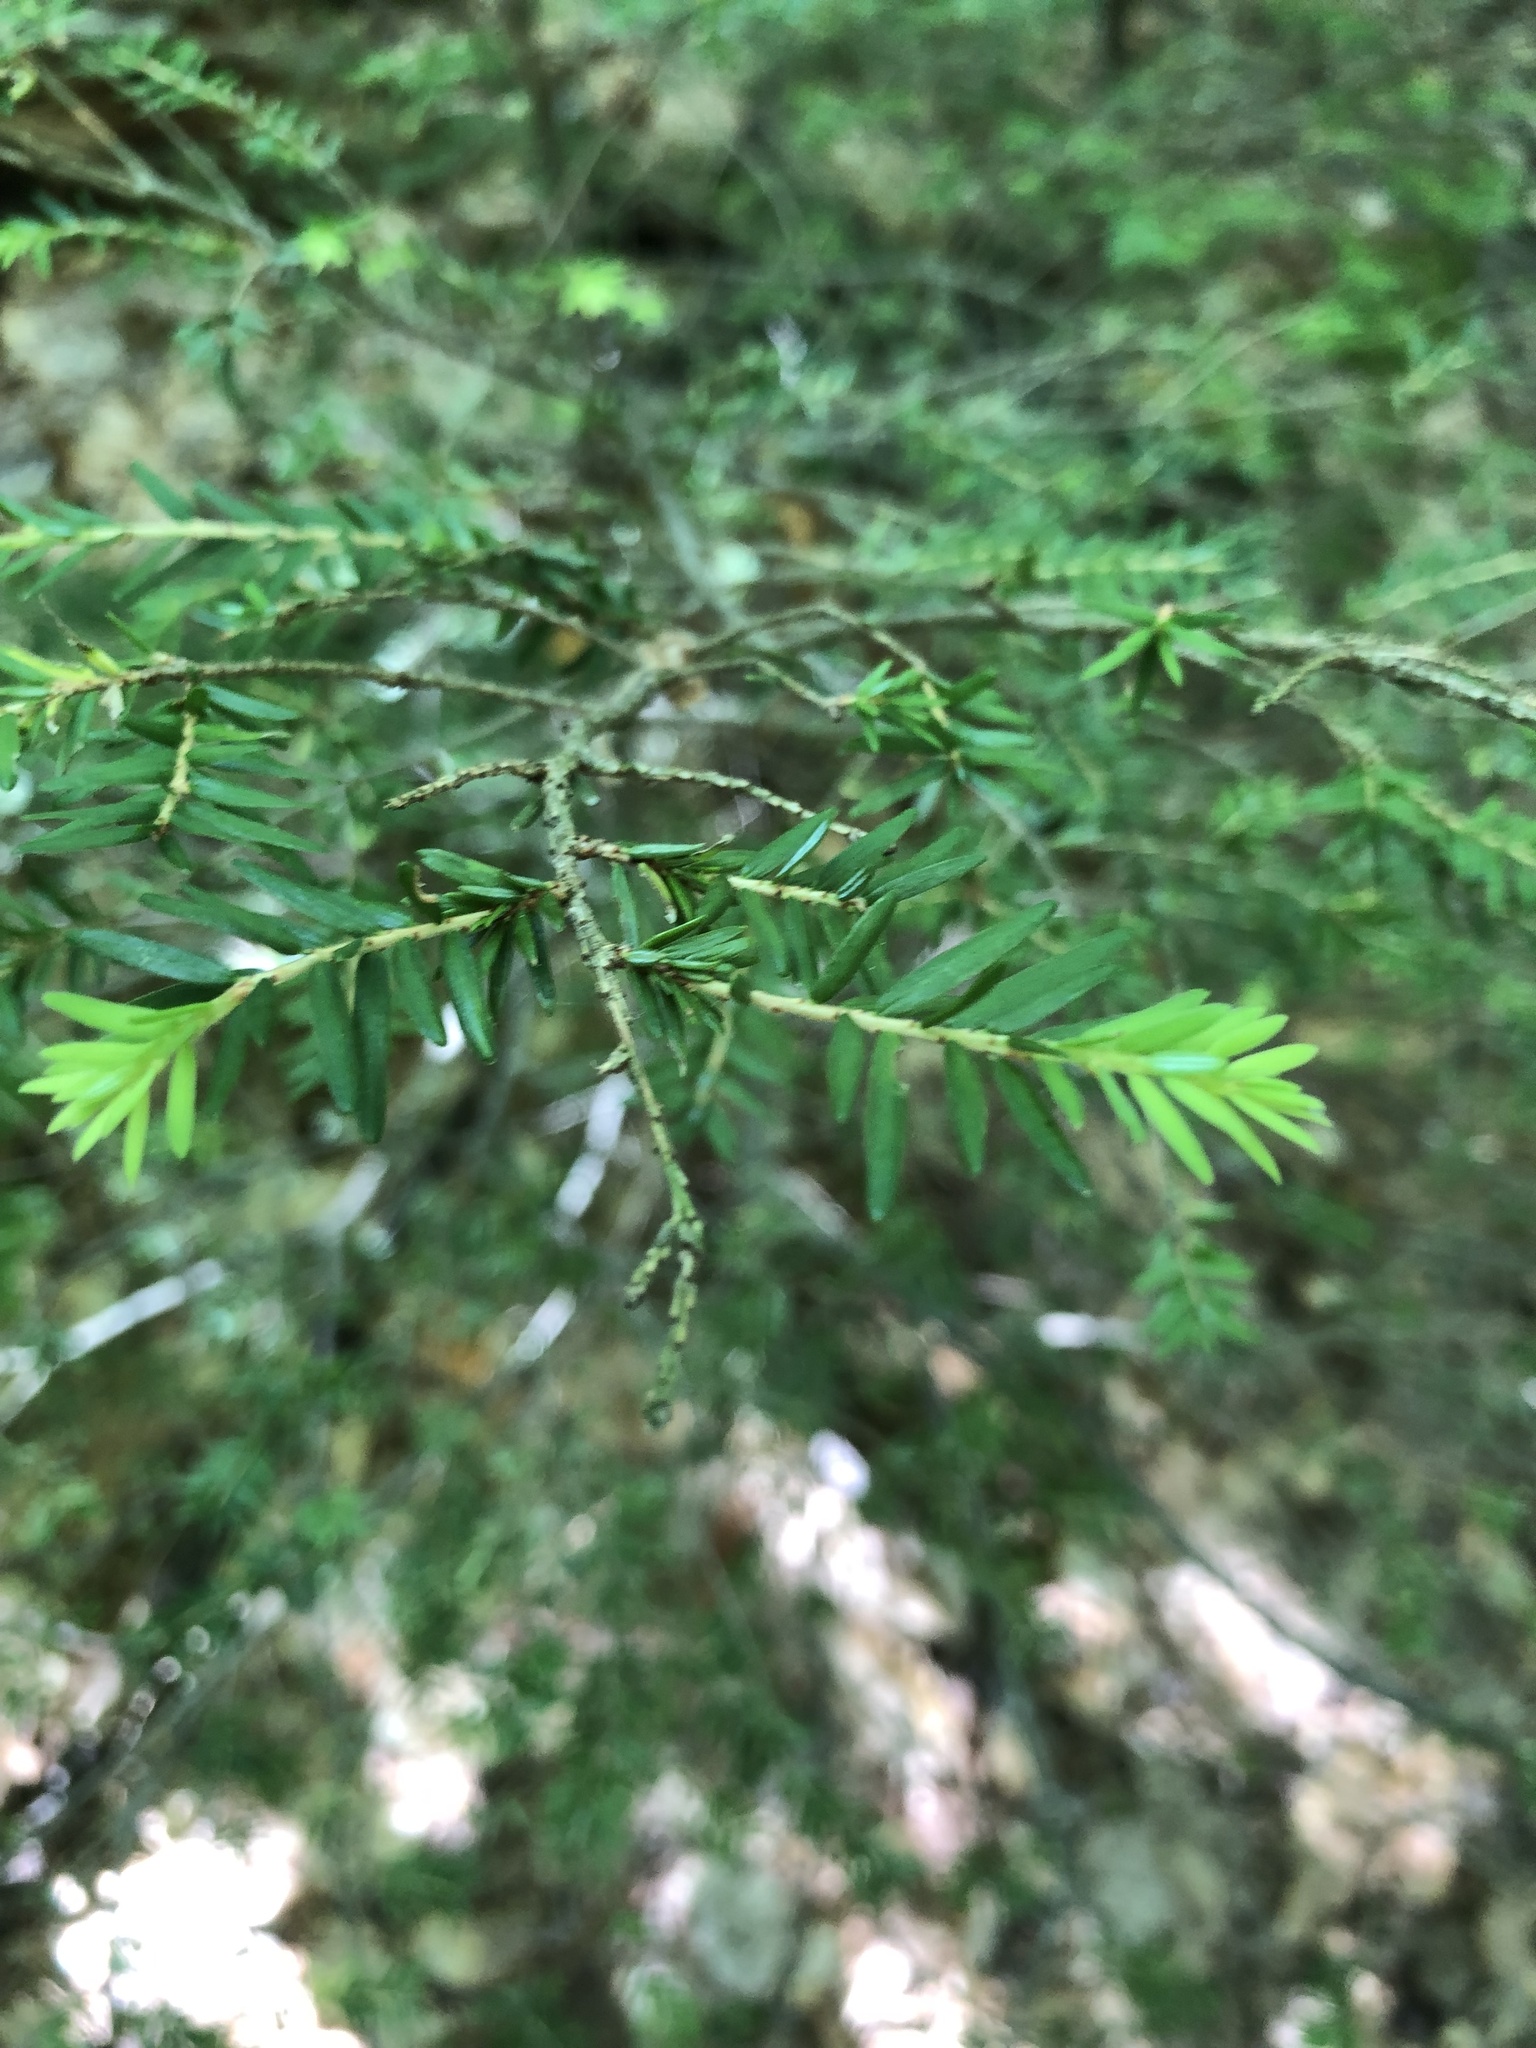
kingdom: Plantae
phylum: Tracheophyta
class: Pinopsida
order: Pinales
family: Pinaceae
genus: Tsuga
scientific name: Tsuga canadensis
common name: Eastern hemlock
